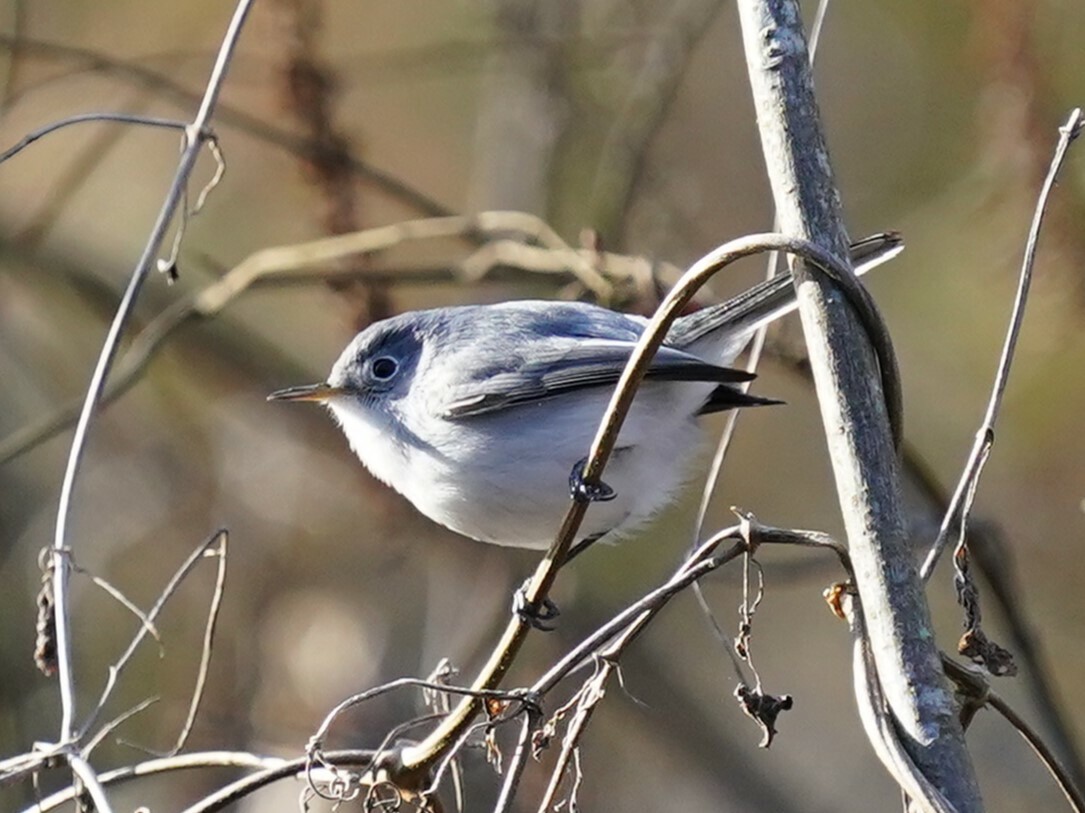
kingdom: Animalia
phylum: Chordata
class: Aves
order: Passeriformes
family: Polioptilidae
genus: Polioptila
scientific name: Polioptila caerulea
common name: Blue-gray gnatcatcher
